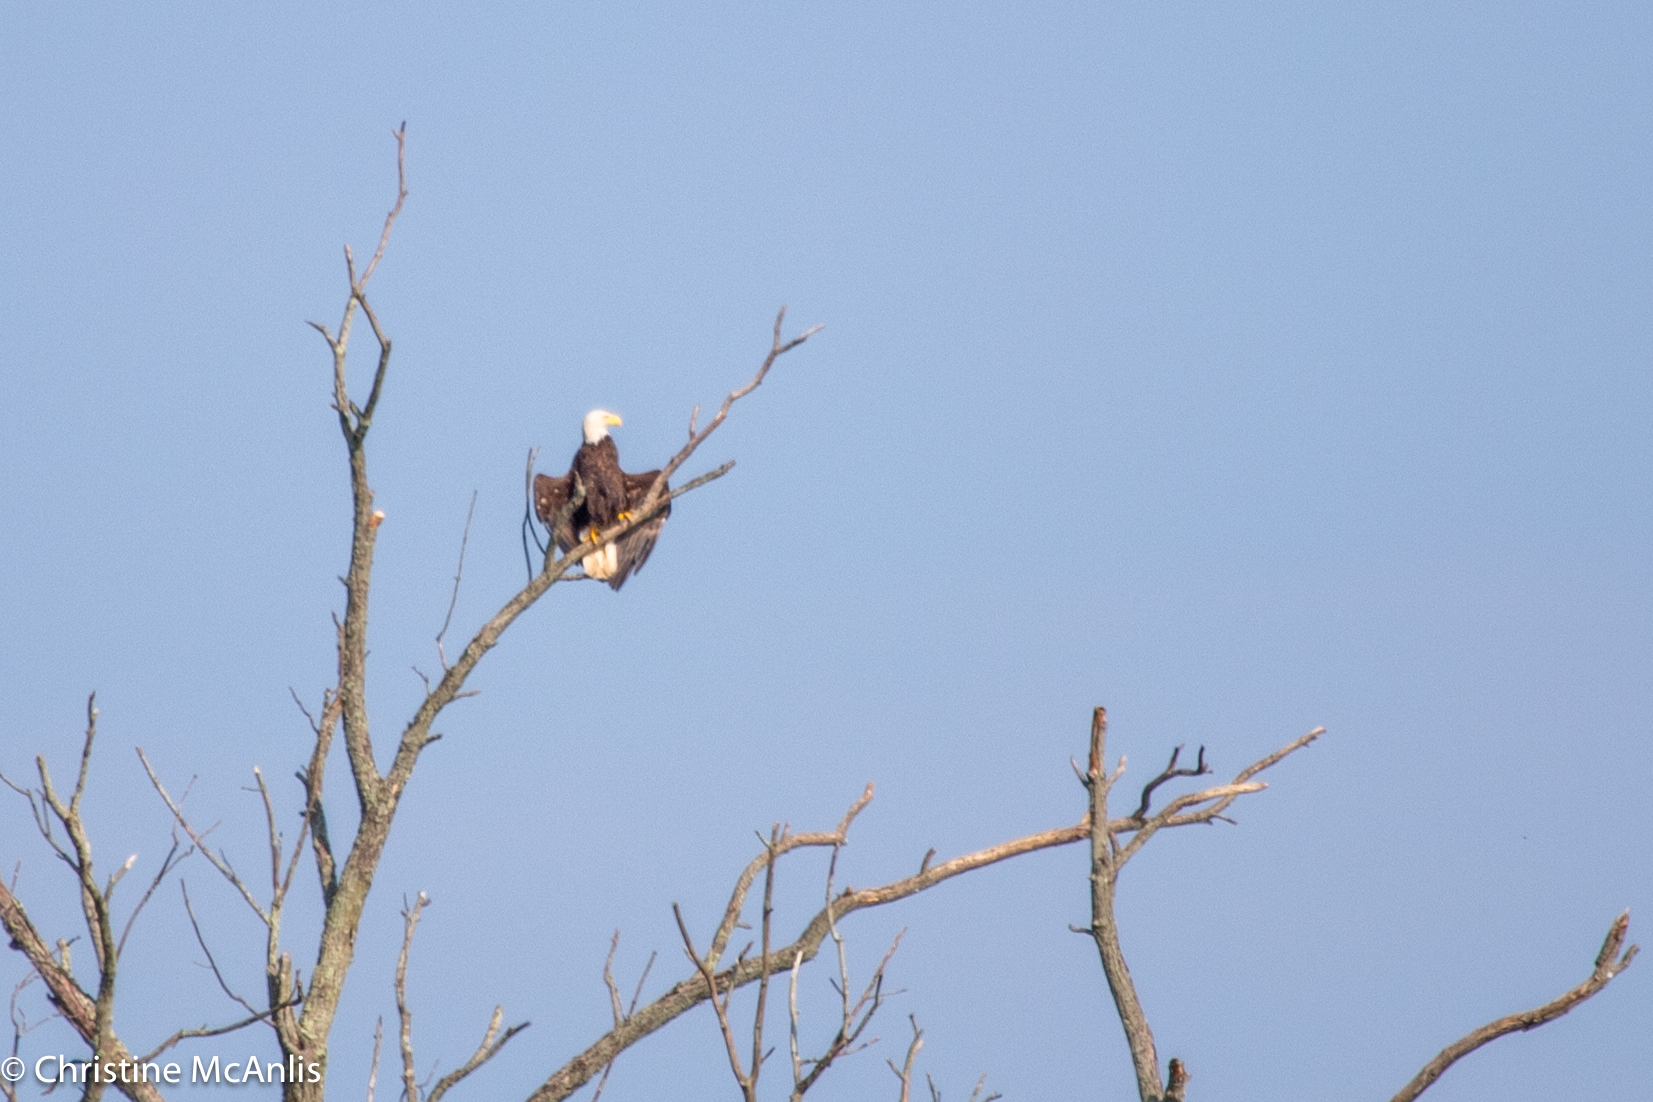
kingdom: Animalia
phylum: Chordata
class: Aves
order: Accipitriformes
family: Accipitridae
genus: Haliaeetus
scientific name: Haliaeetus leucocephalus
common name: Bald eagle
